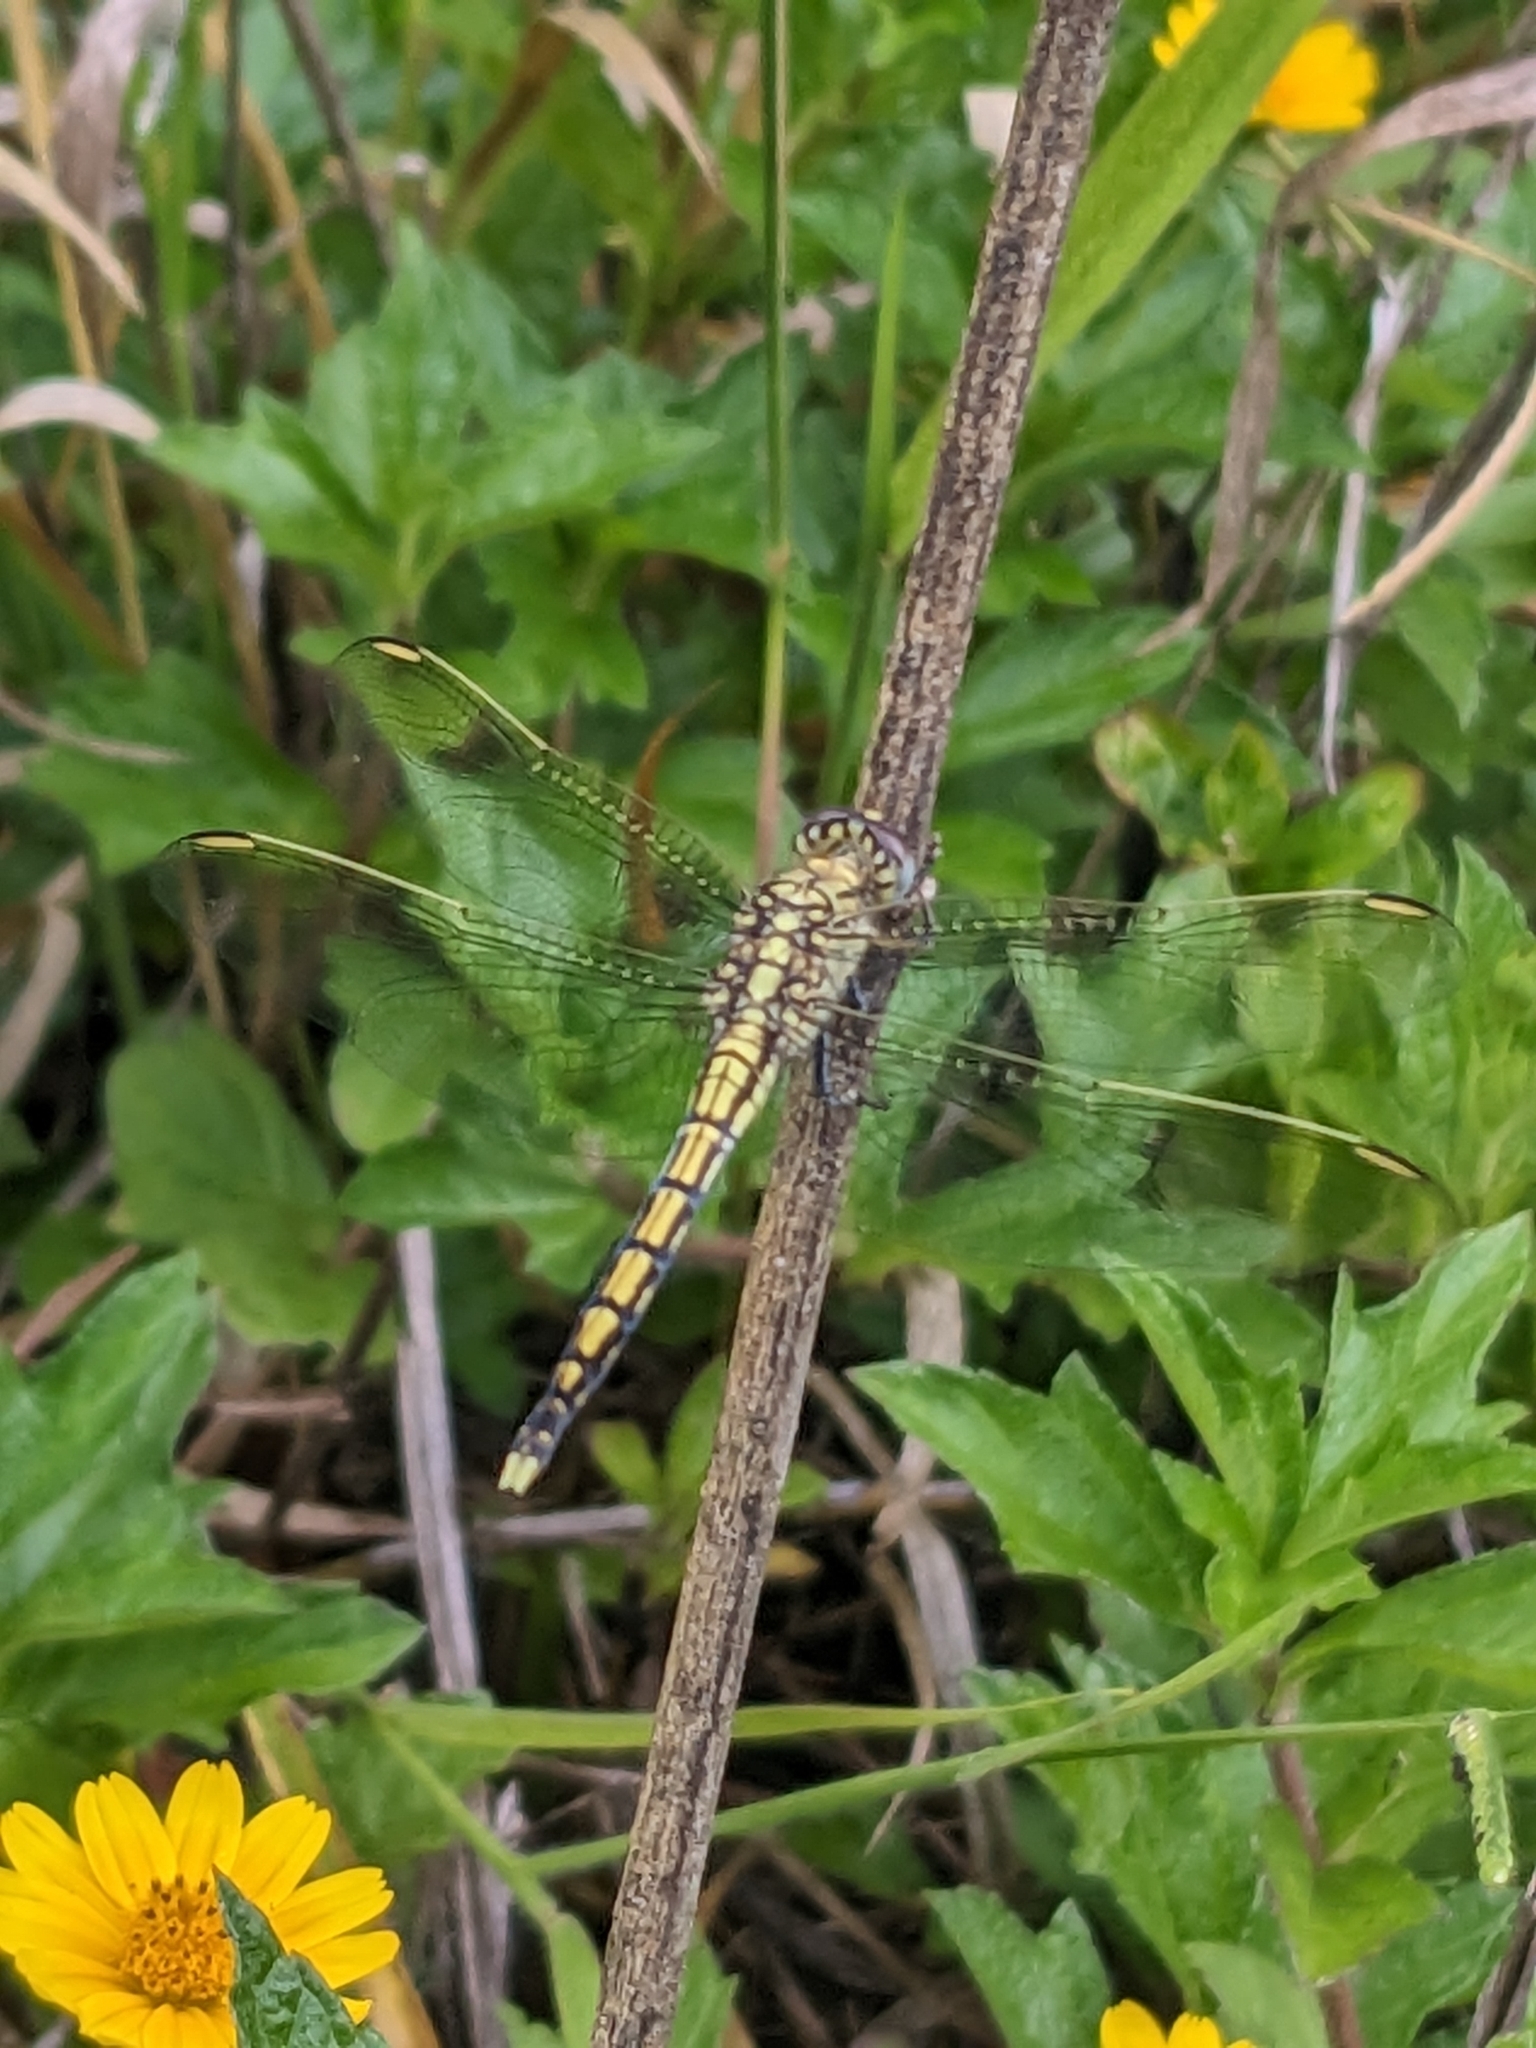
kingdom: Animalia
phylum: Arthropoda
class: Insecta
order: Odonata
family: Libellulidae
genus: Orthetrum
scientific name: Orthetrum caledonicum
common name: Blue skimmer
